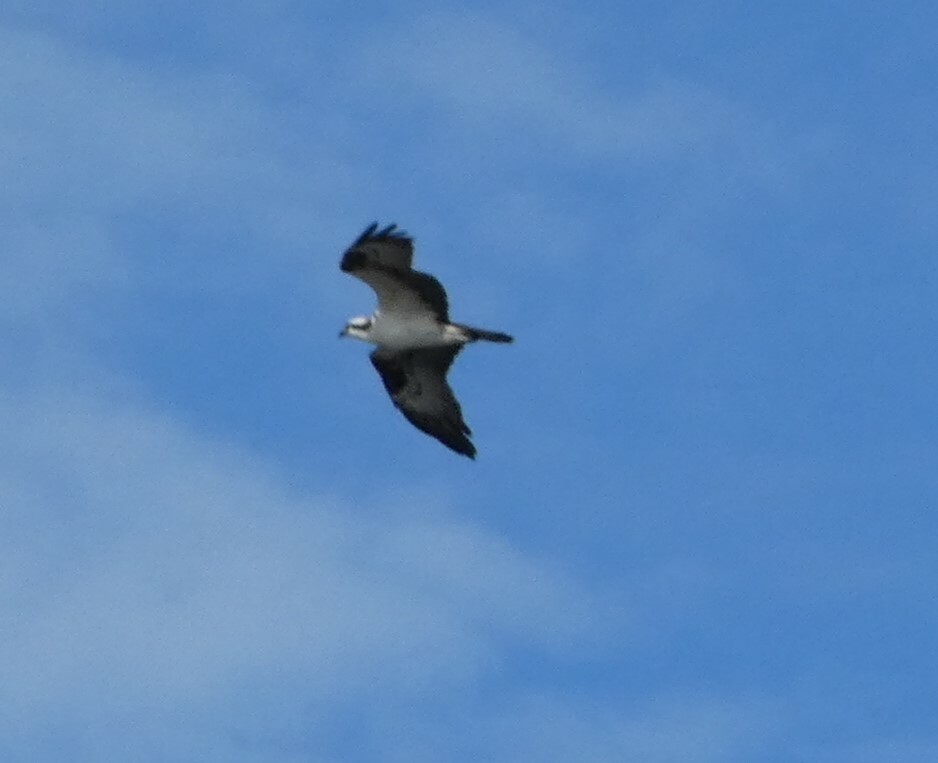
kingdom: Animalia
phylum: Chordata
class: Aves
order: Accipitriformes
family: Pandionidae
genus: Pandion
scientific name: Pandion haliaetus
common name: Osprey
